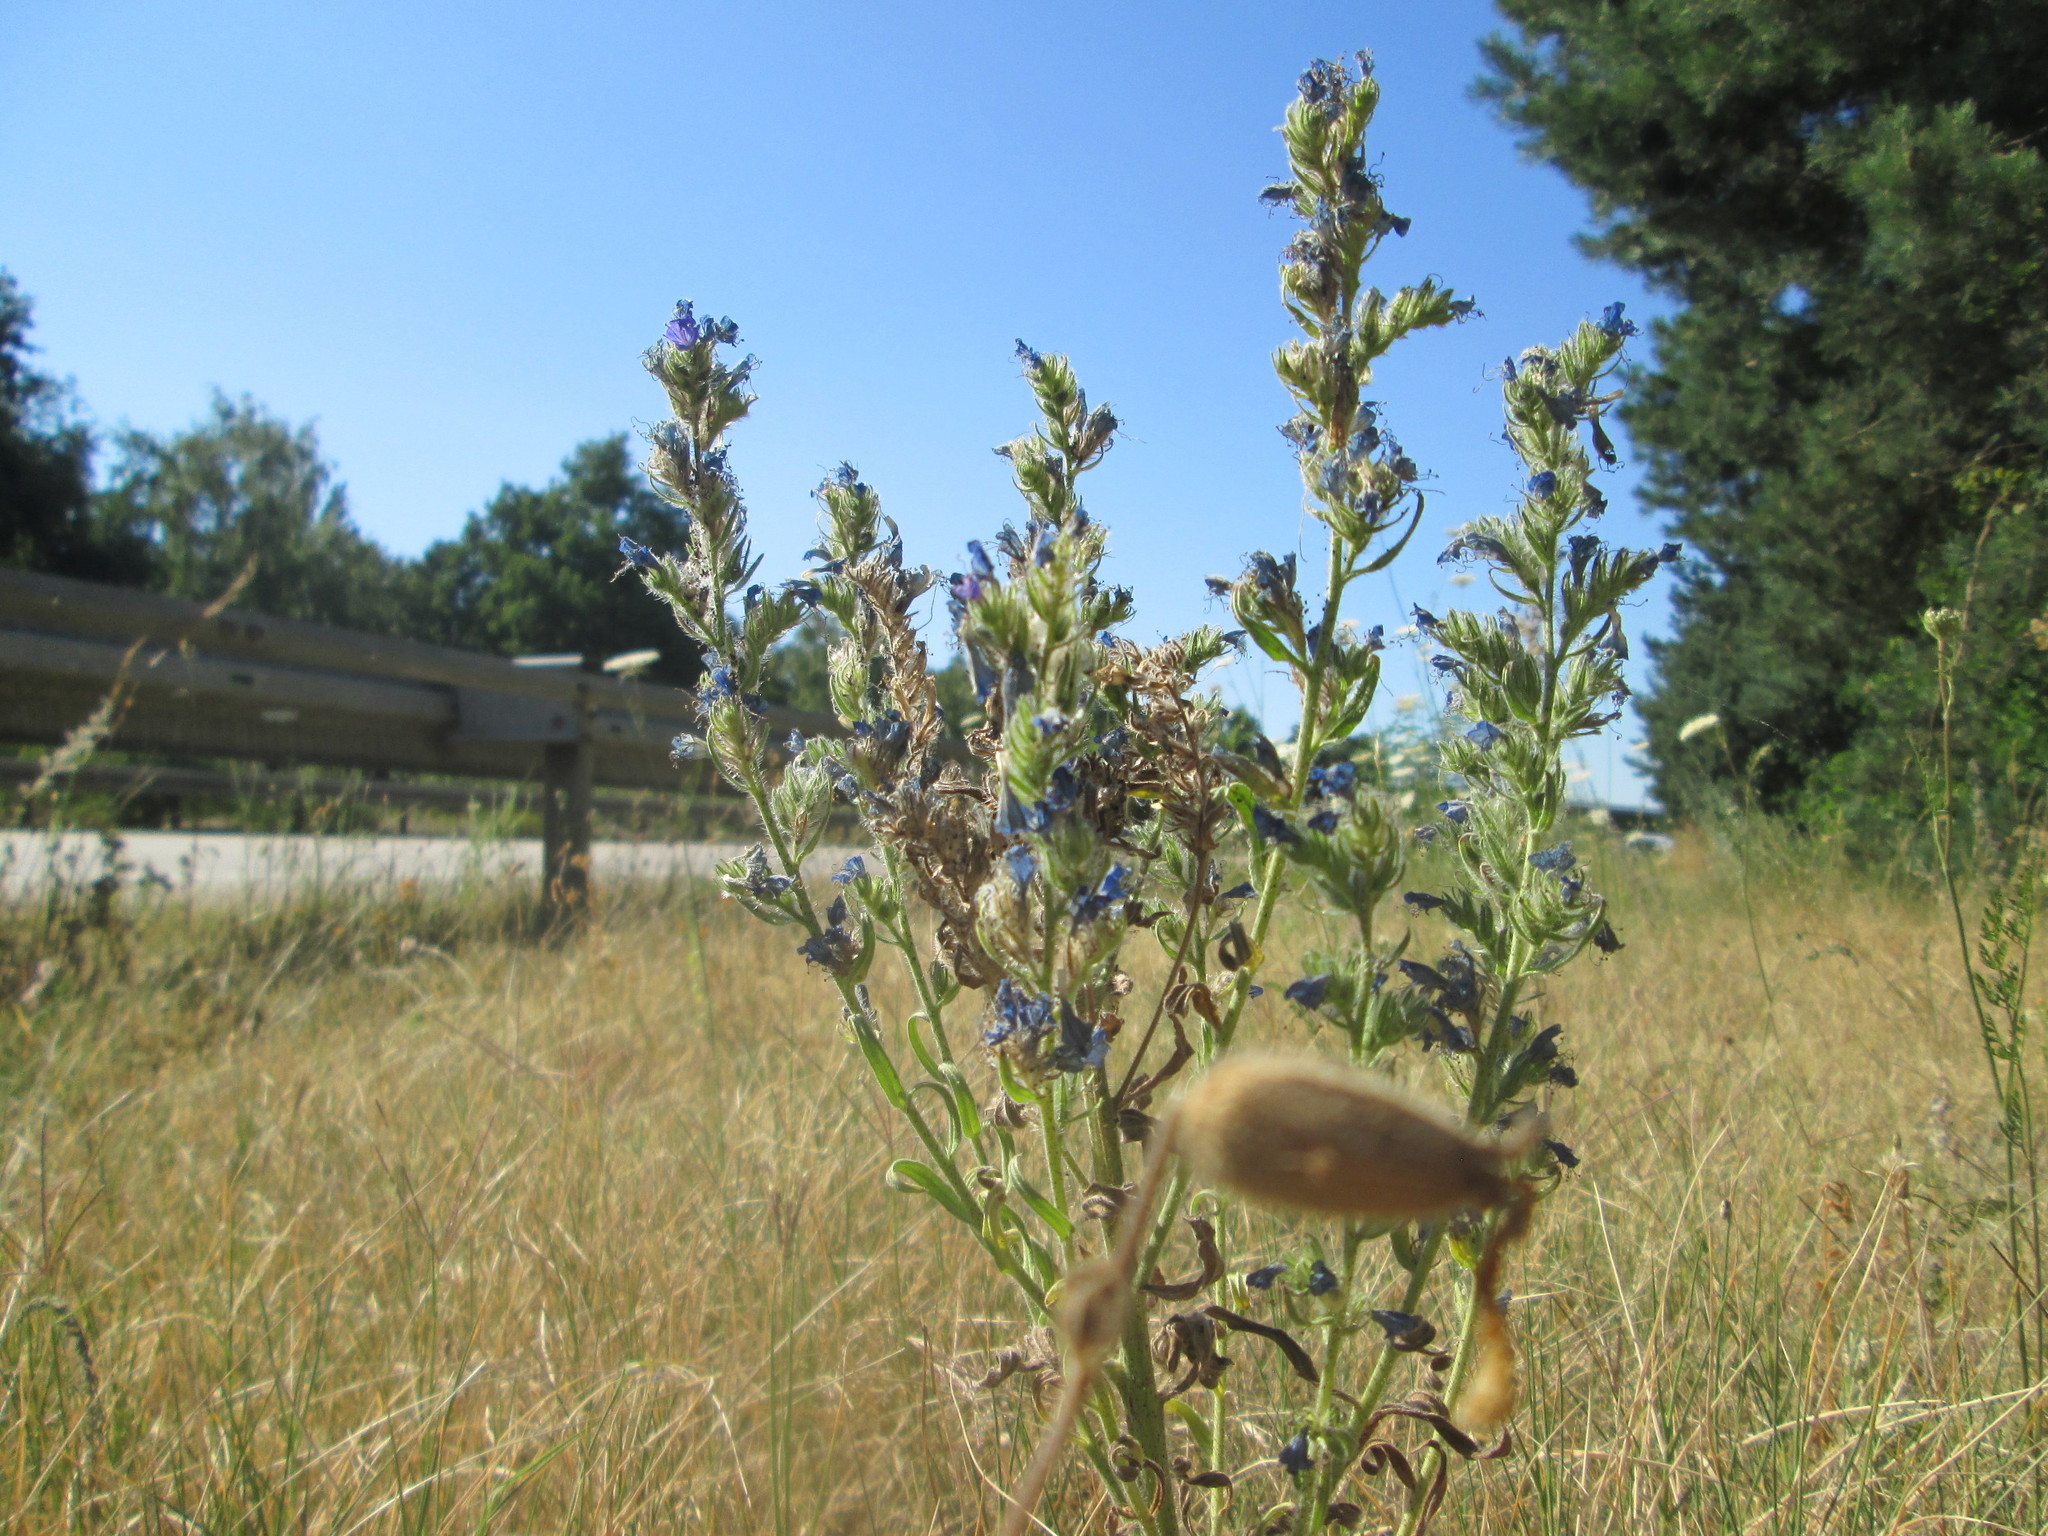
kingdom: Plantae
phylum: Tracheophyta
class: Magnoliopsida
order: Boraginales
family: Boraginaceae
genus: Echium
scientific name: Echium vulgare
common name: Common viper's bugloss
